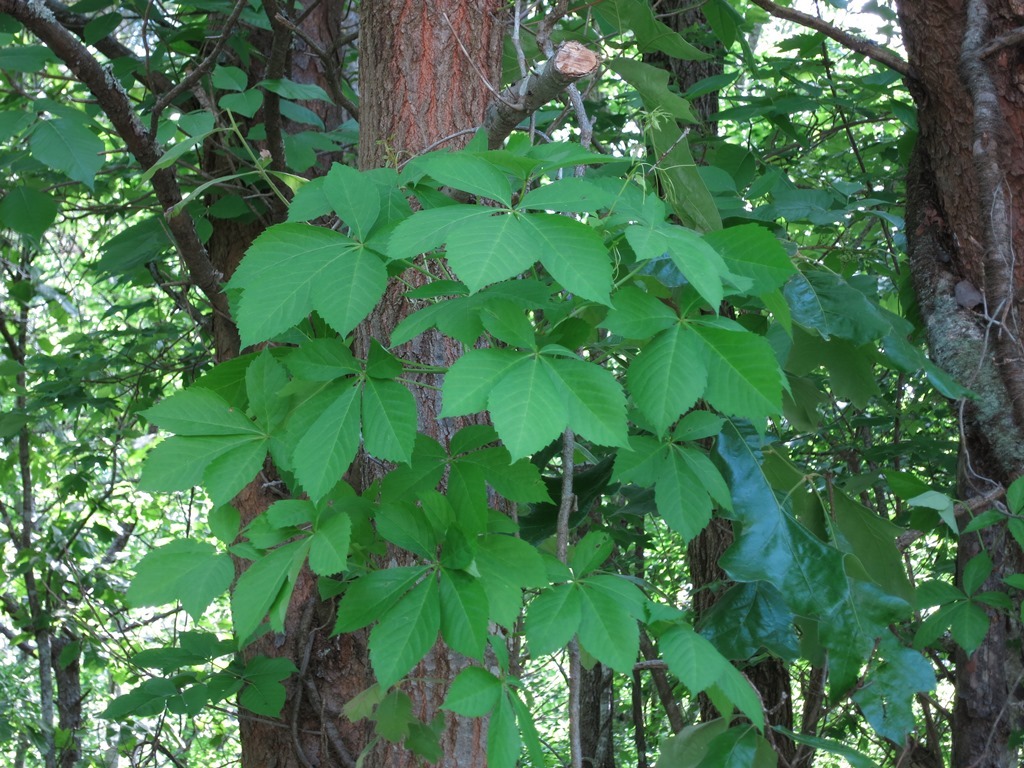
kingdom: Plantae
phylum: Tracheophyta
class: Magnoliopsida
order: Vitales
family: Vitaceae
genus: Parthenocissus
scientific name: Parthenocissus quinquefolia
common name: Virginia-creeper
